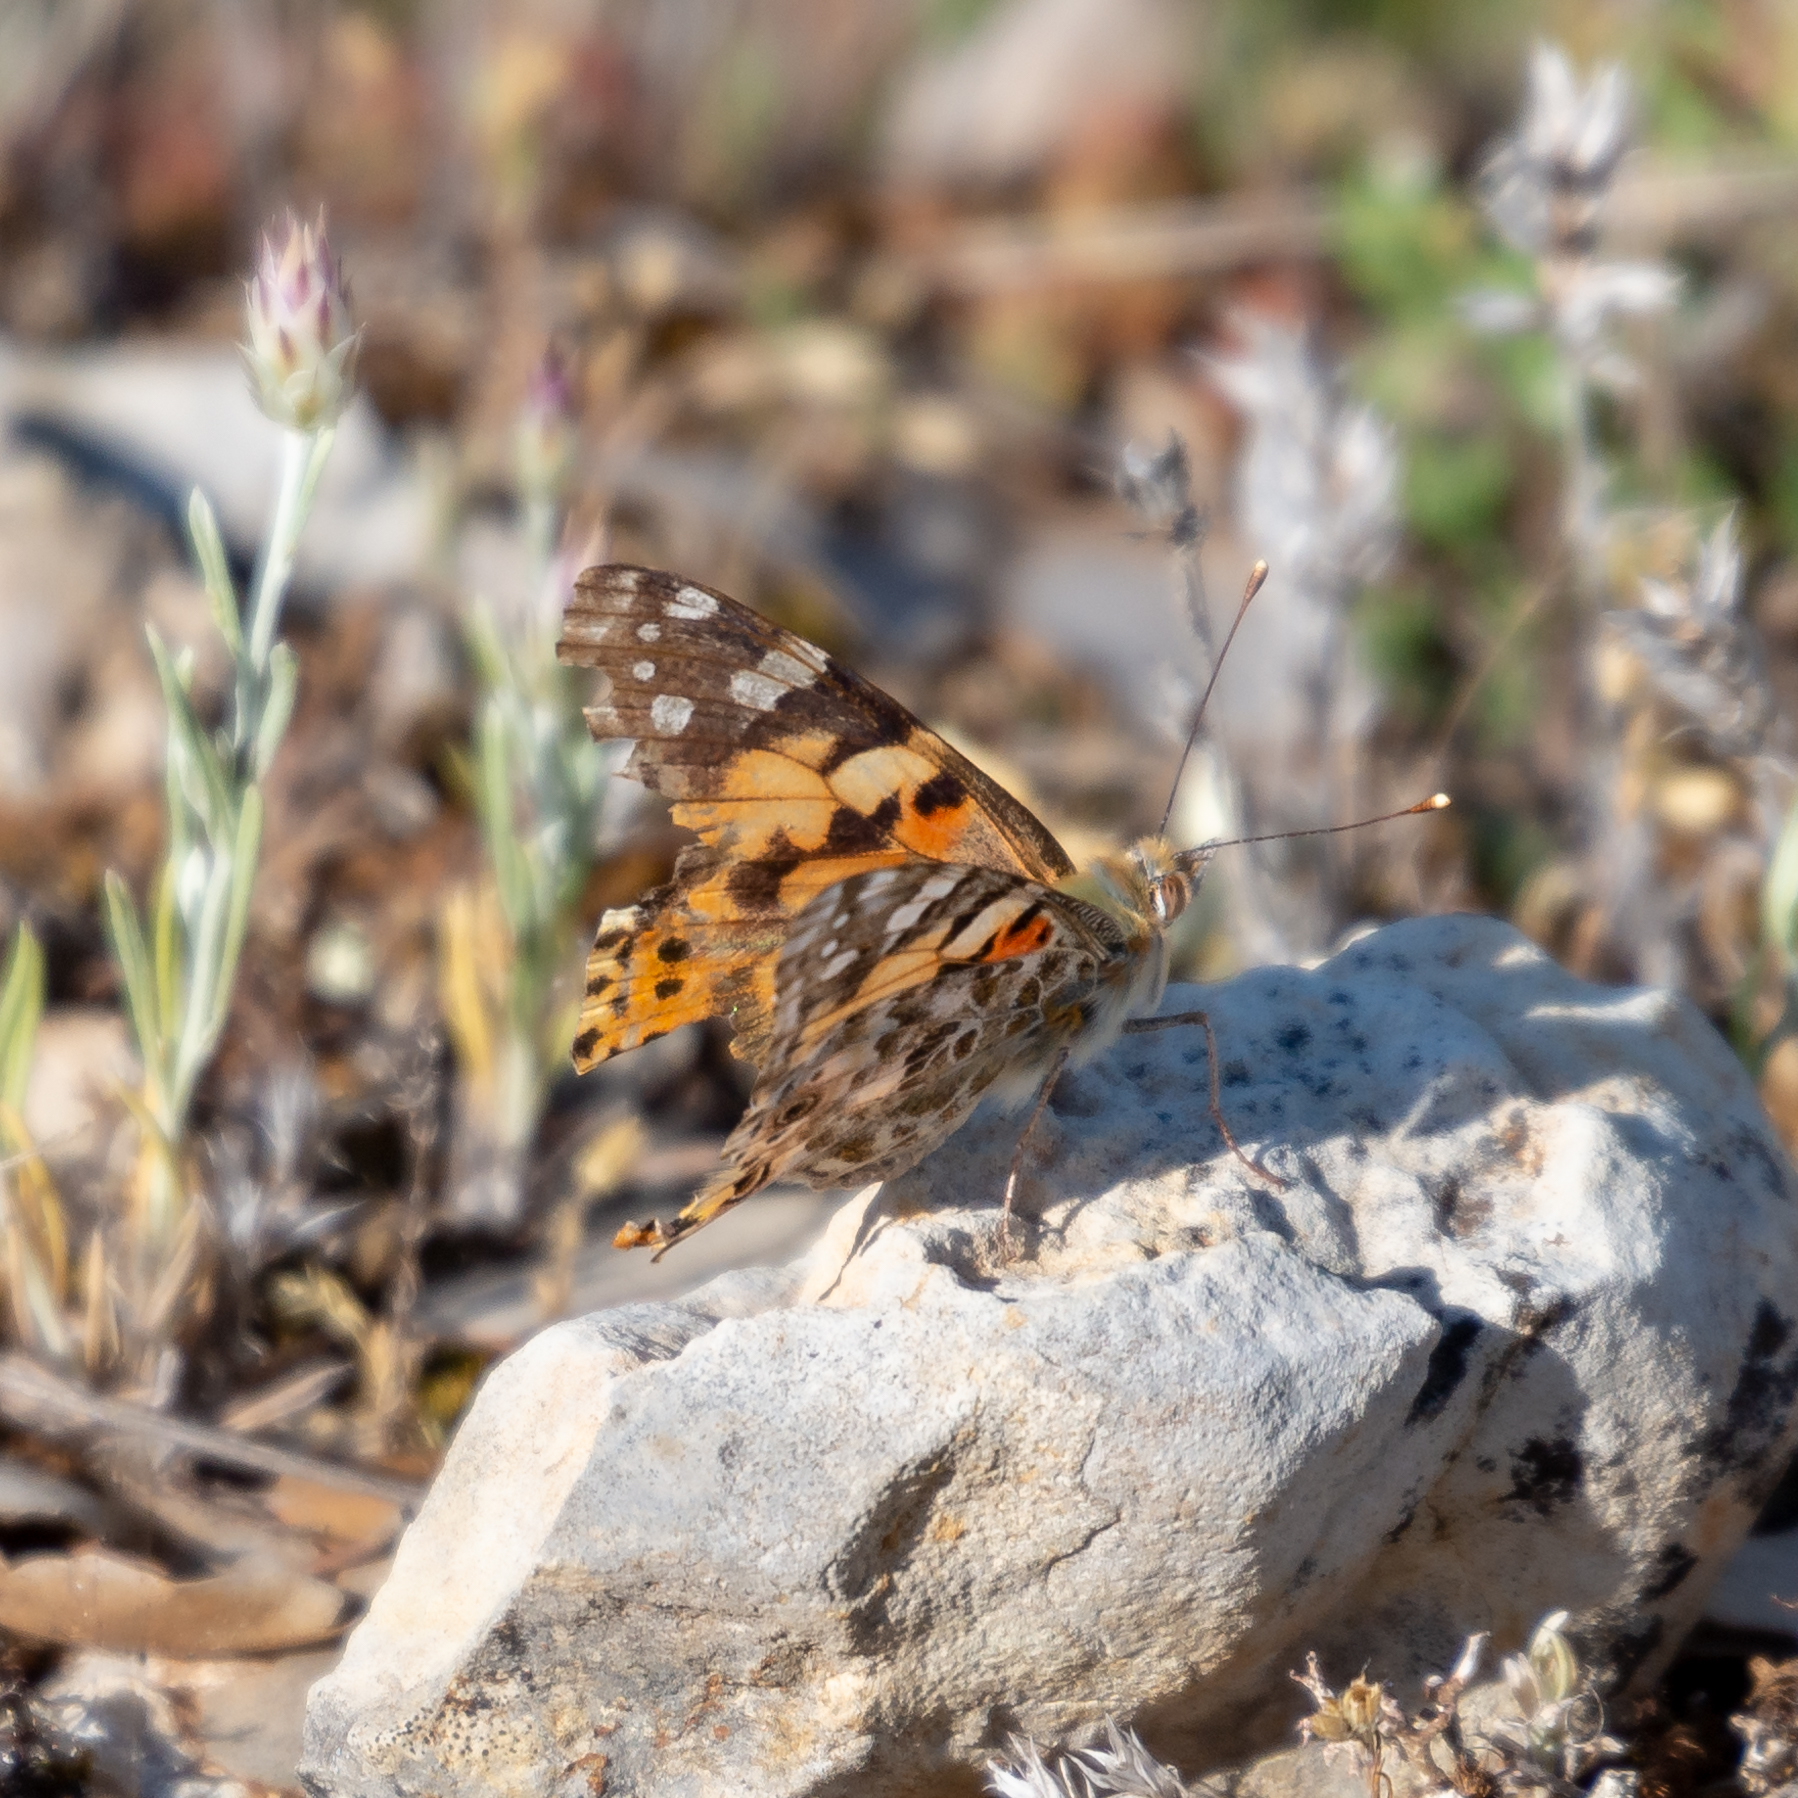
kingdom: Animalia
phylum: Arthropoda
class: Insecta
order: Lepidoptera
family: Nymphalidae
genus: Vanessa
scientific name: Vanessa cardui
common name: Painted lady
